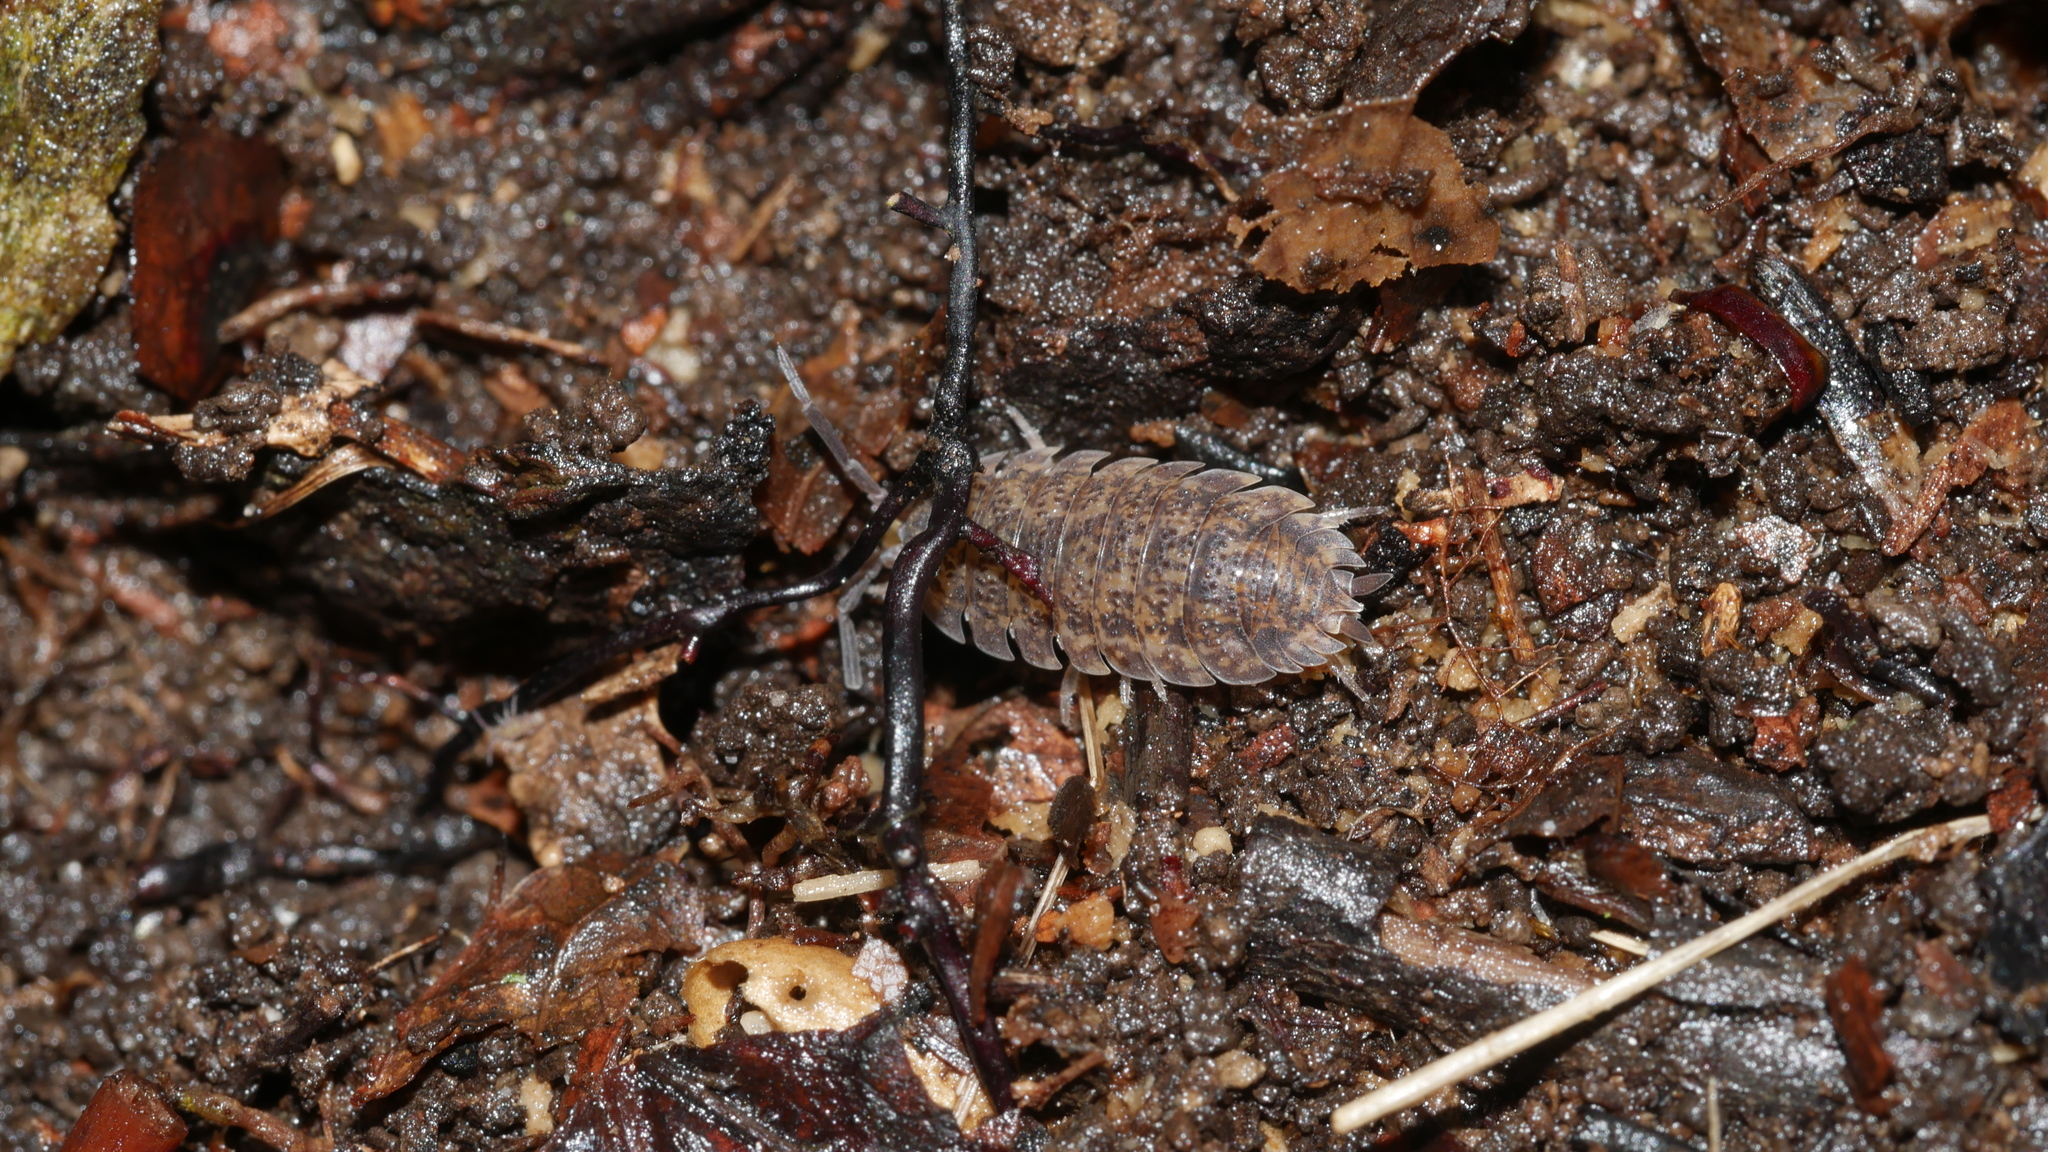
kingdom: Animalia
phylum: Arthropoda
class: Malacostraca
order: Isopoda
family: Porcellionidae
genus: Porcellio
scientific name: Porcellio scaber
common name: Common rough woodlouse
